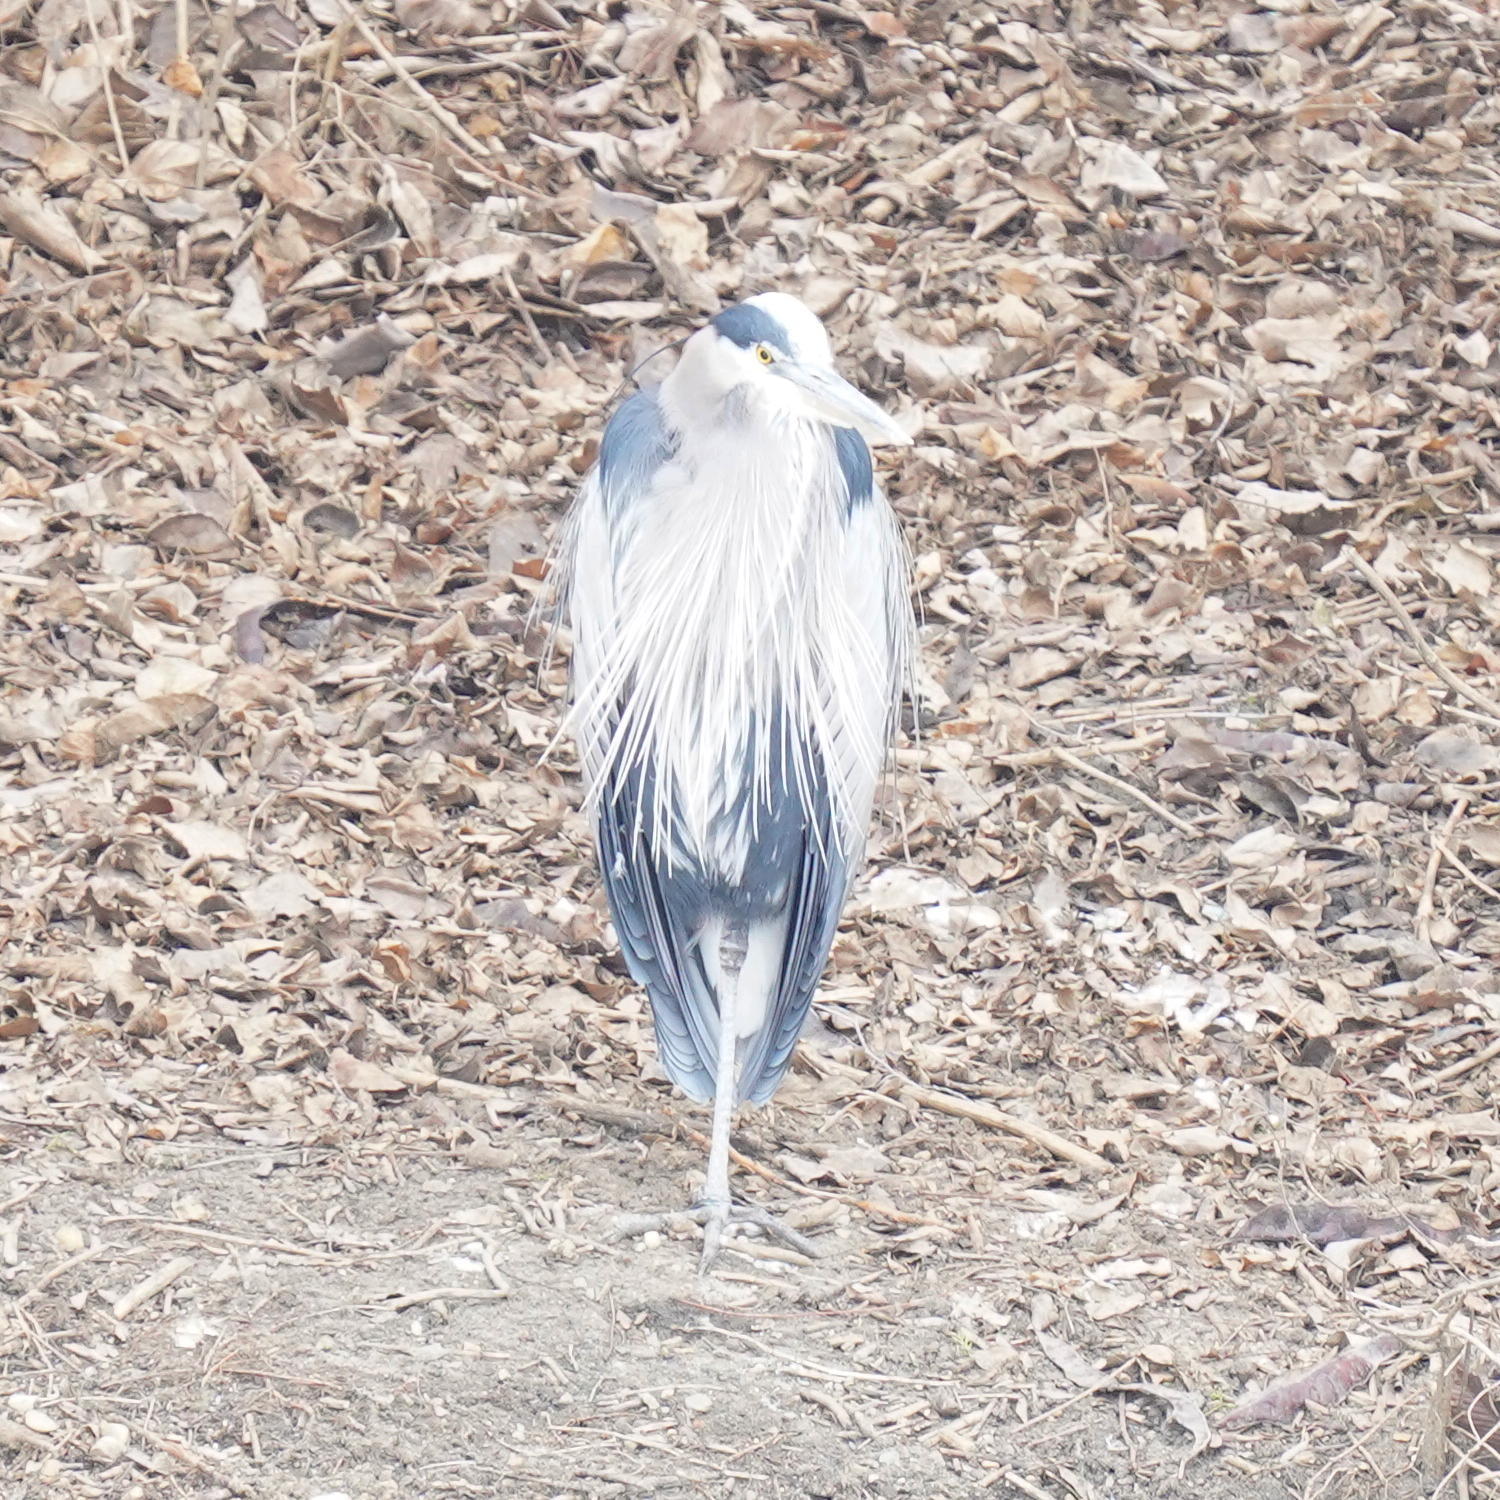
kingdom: Animalia
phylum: Chordata
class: Aves
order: Pelecaniformes
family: Ardeidae
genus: Ardea
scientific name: Ardea herodias
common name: Great blue heron
